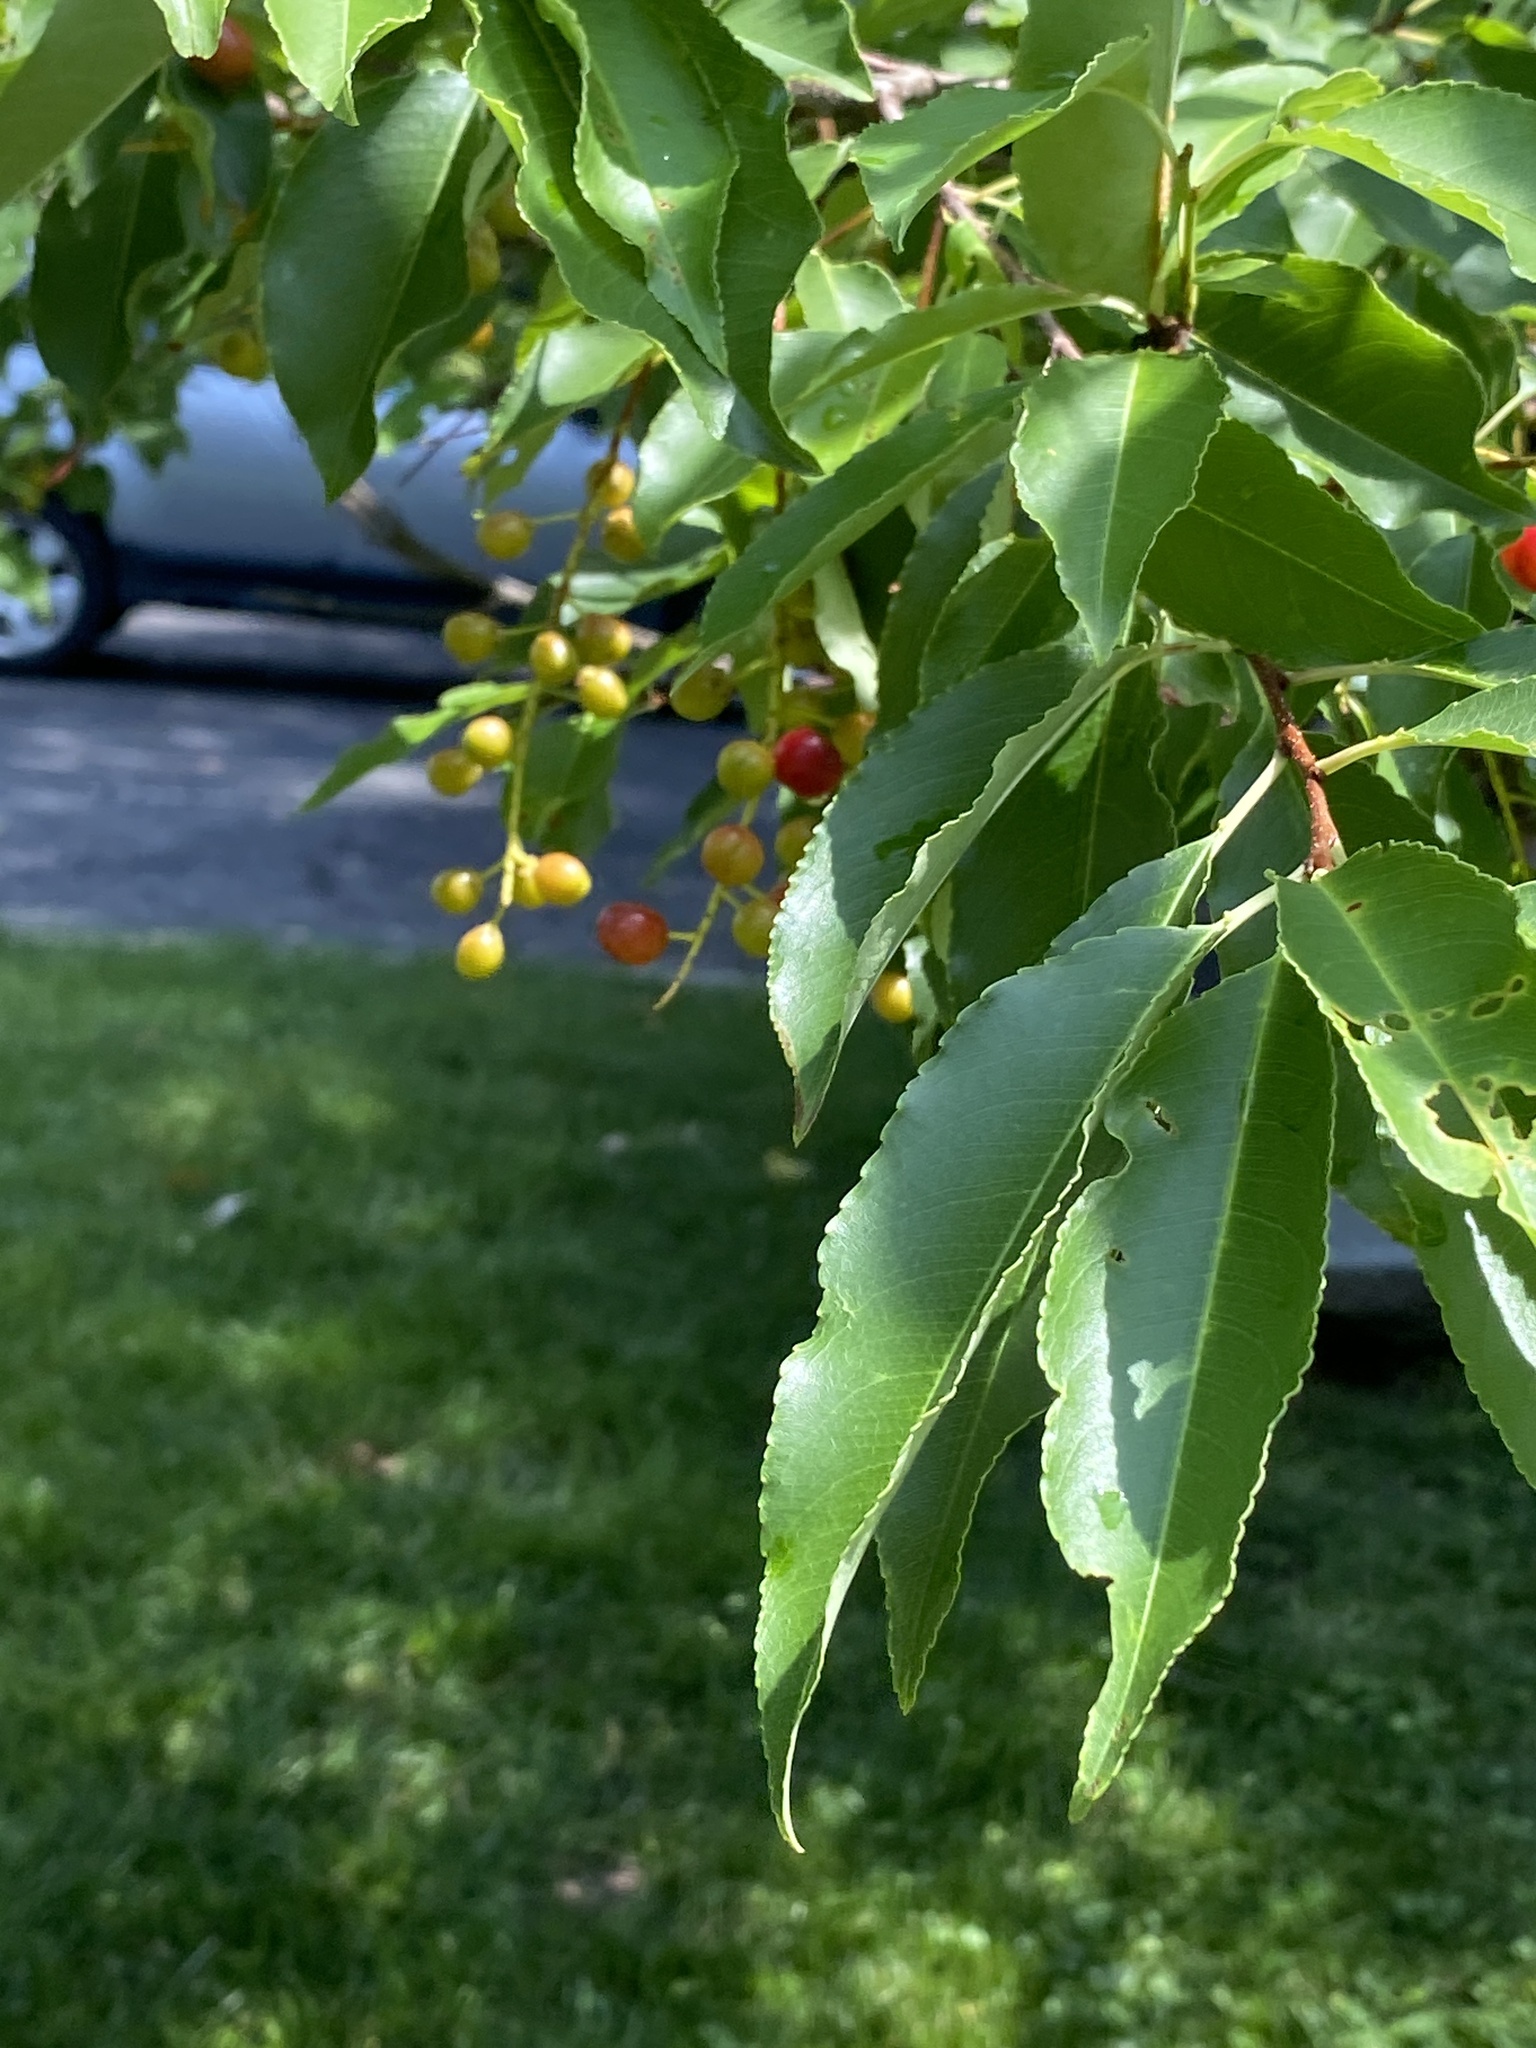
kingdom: Plantae
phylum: Tracheophyta
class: Magnoliopsida
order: Rosales
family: Rosaceae
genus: Prunus
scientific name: Prunus serotina
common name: Black cherry
